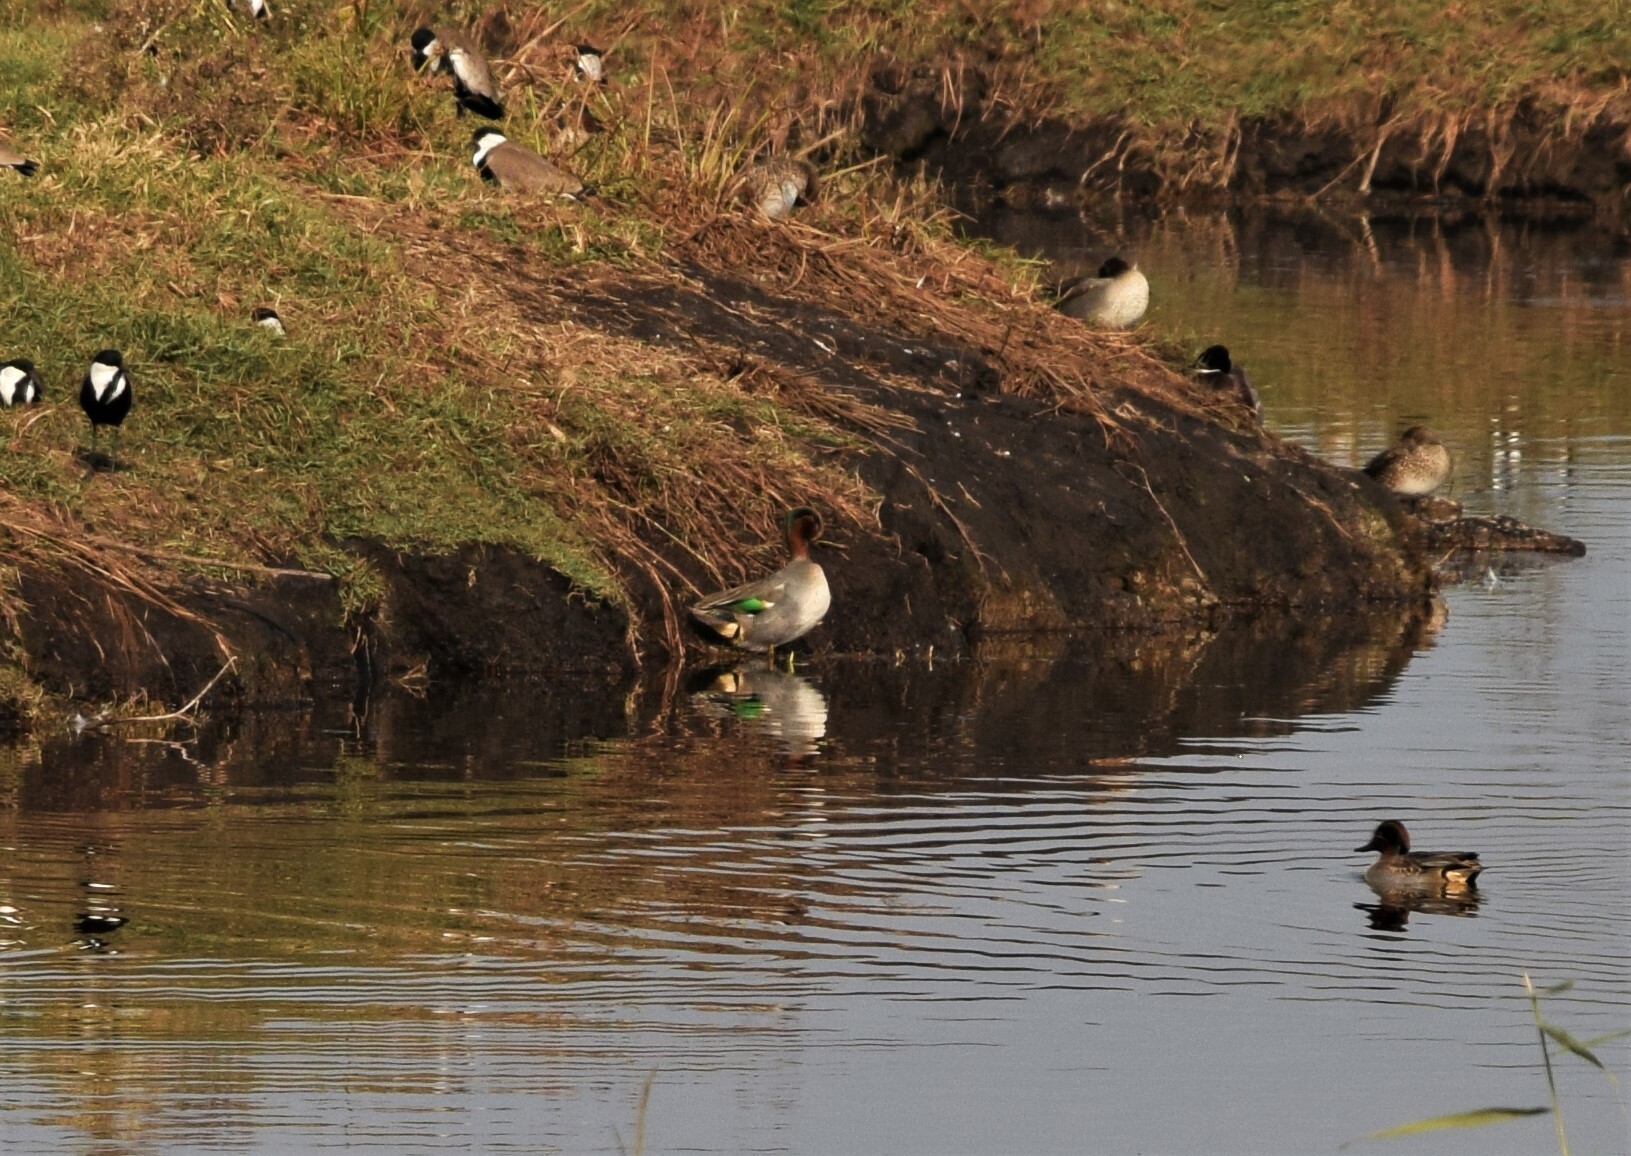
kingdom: Animalia
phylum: Chordata
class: Aves
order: Anseriformes
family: Anatidae
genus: Anas
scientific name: Anas crecca
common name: Eurasian teal
